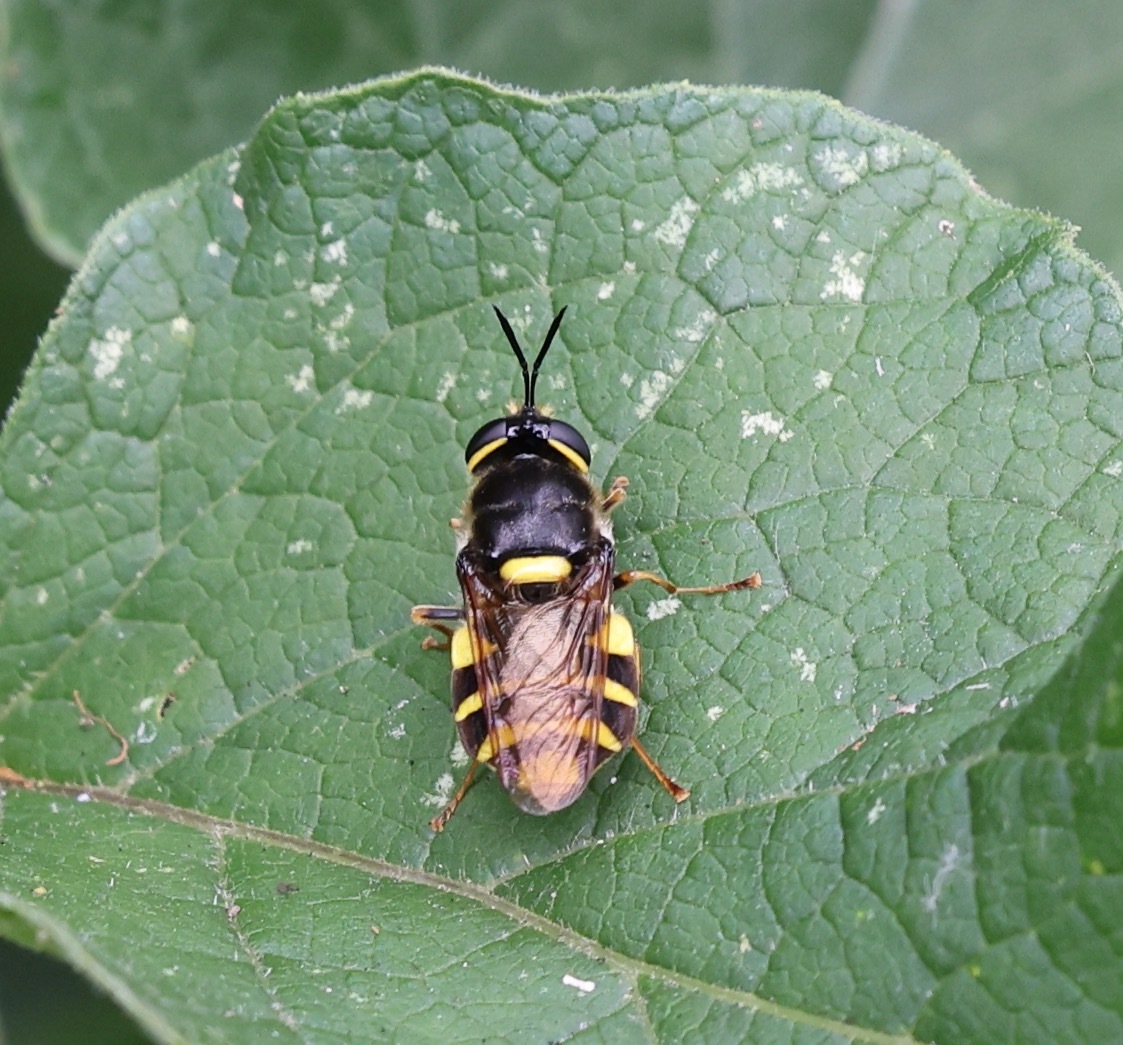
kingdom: Animalia
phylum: Arthropoda
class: Insecta
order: Diptera
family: Stratiomyidae
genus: Stratiomys
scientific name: Stratiomys potamida
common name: Banded general
